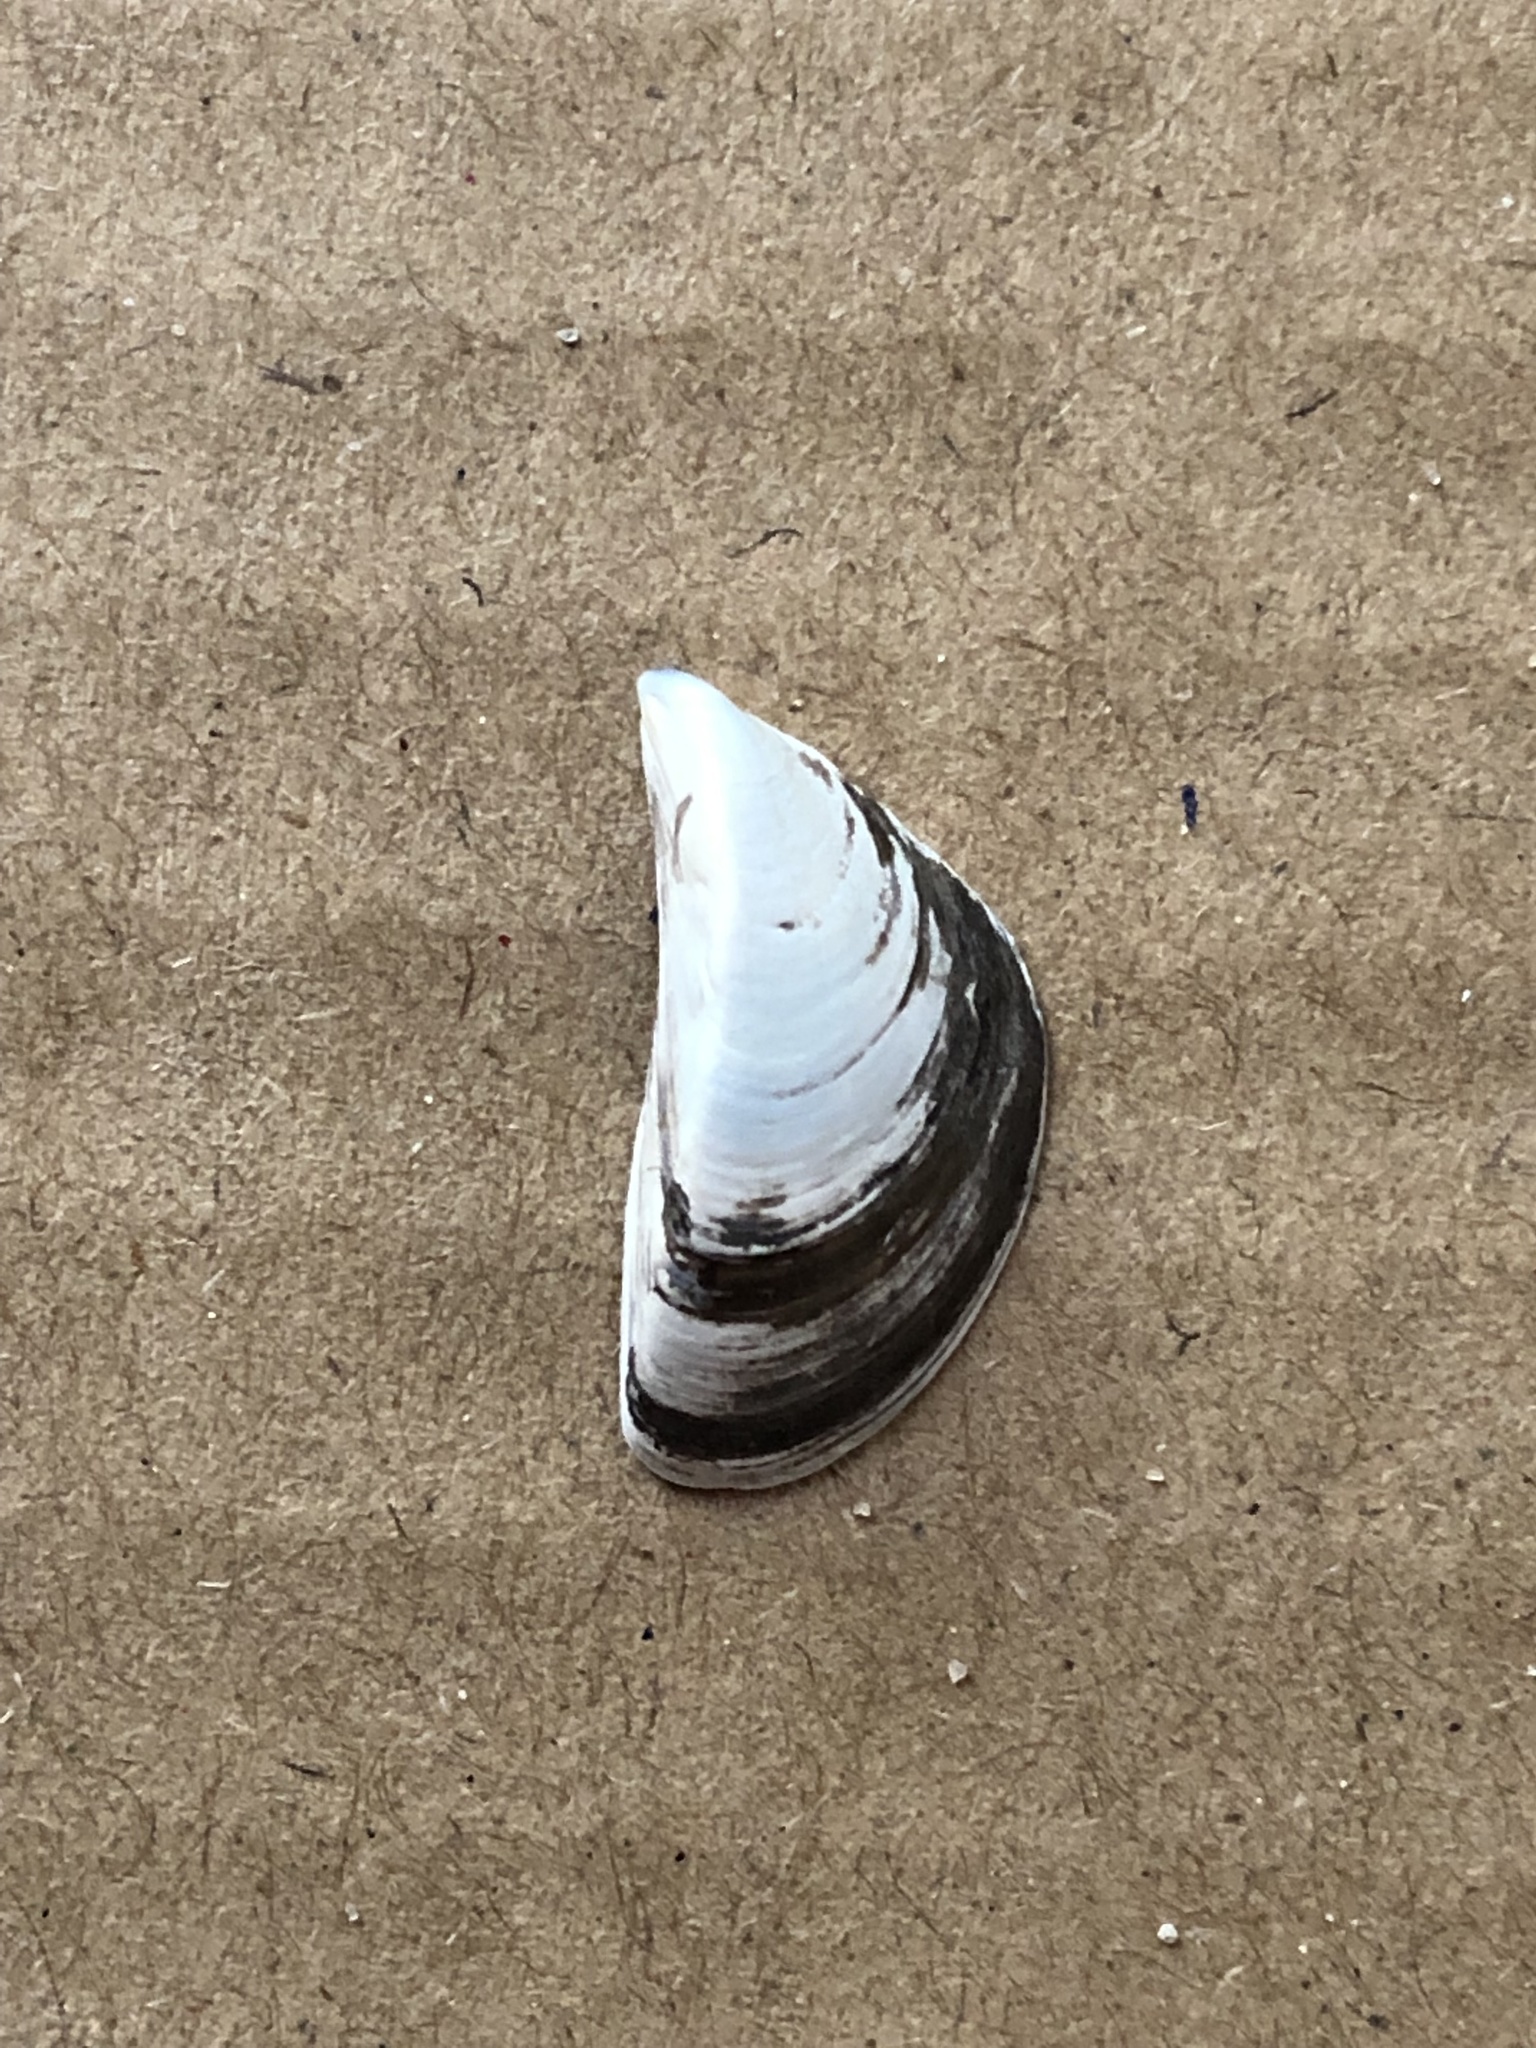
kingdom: Animalia
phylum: Mollusca
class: Bivalvia
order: Myida
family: Dreissenidae
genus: Dreissena
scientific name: Dreissena polymorpha
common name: Zebra mussel
